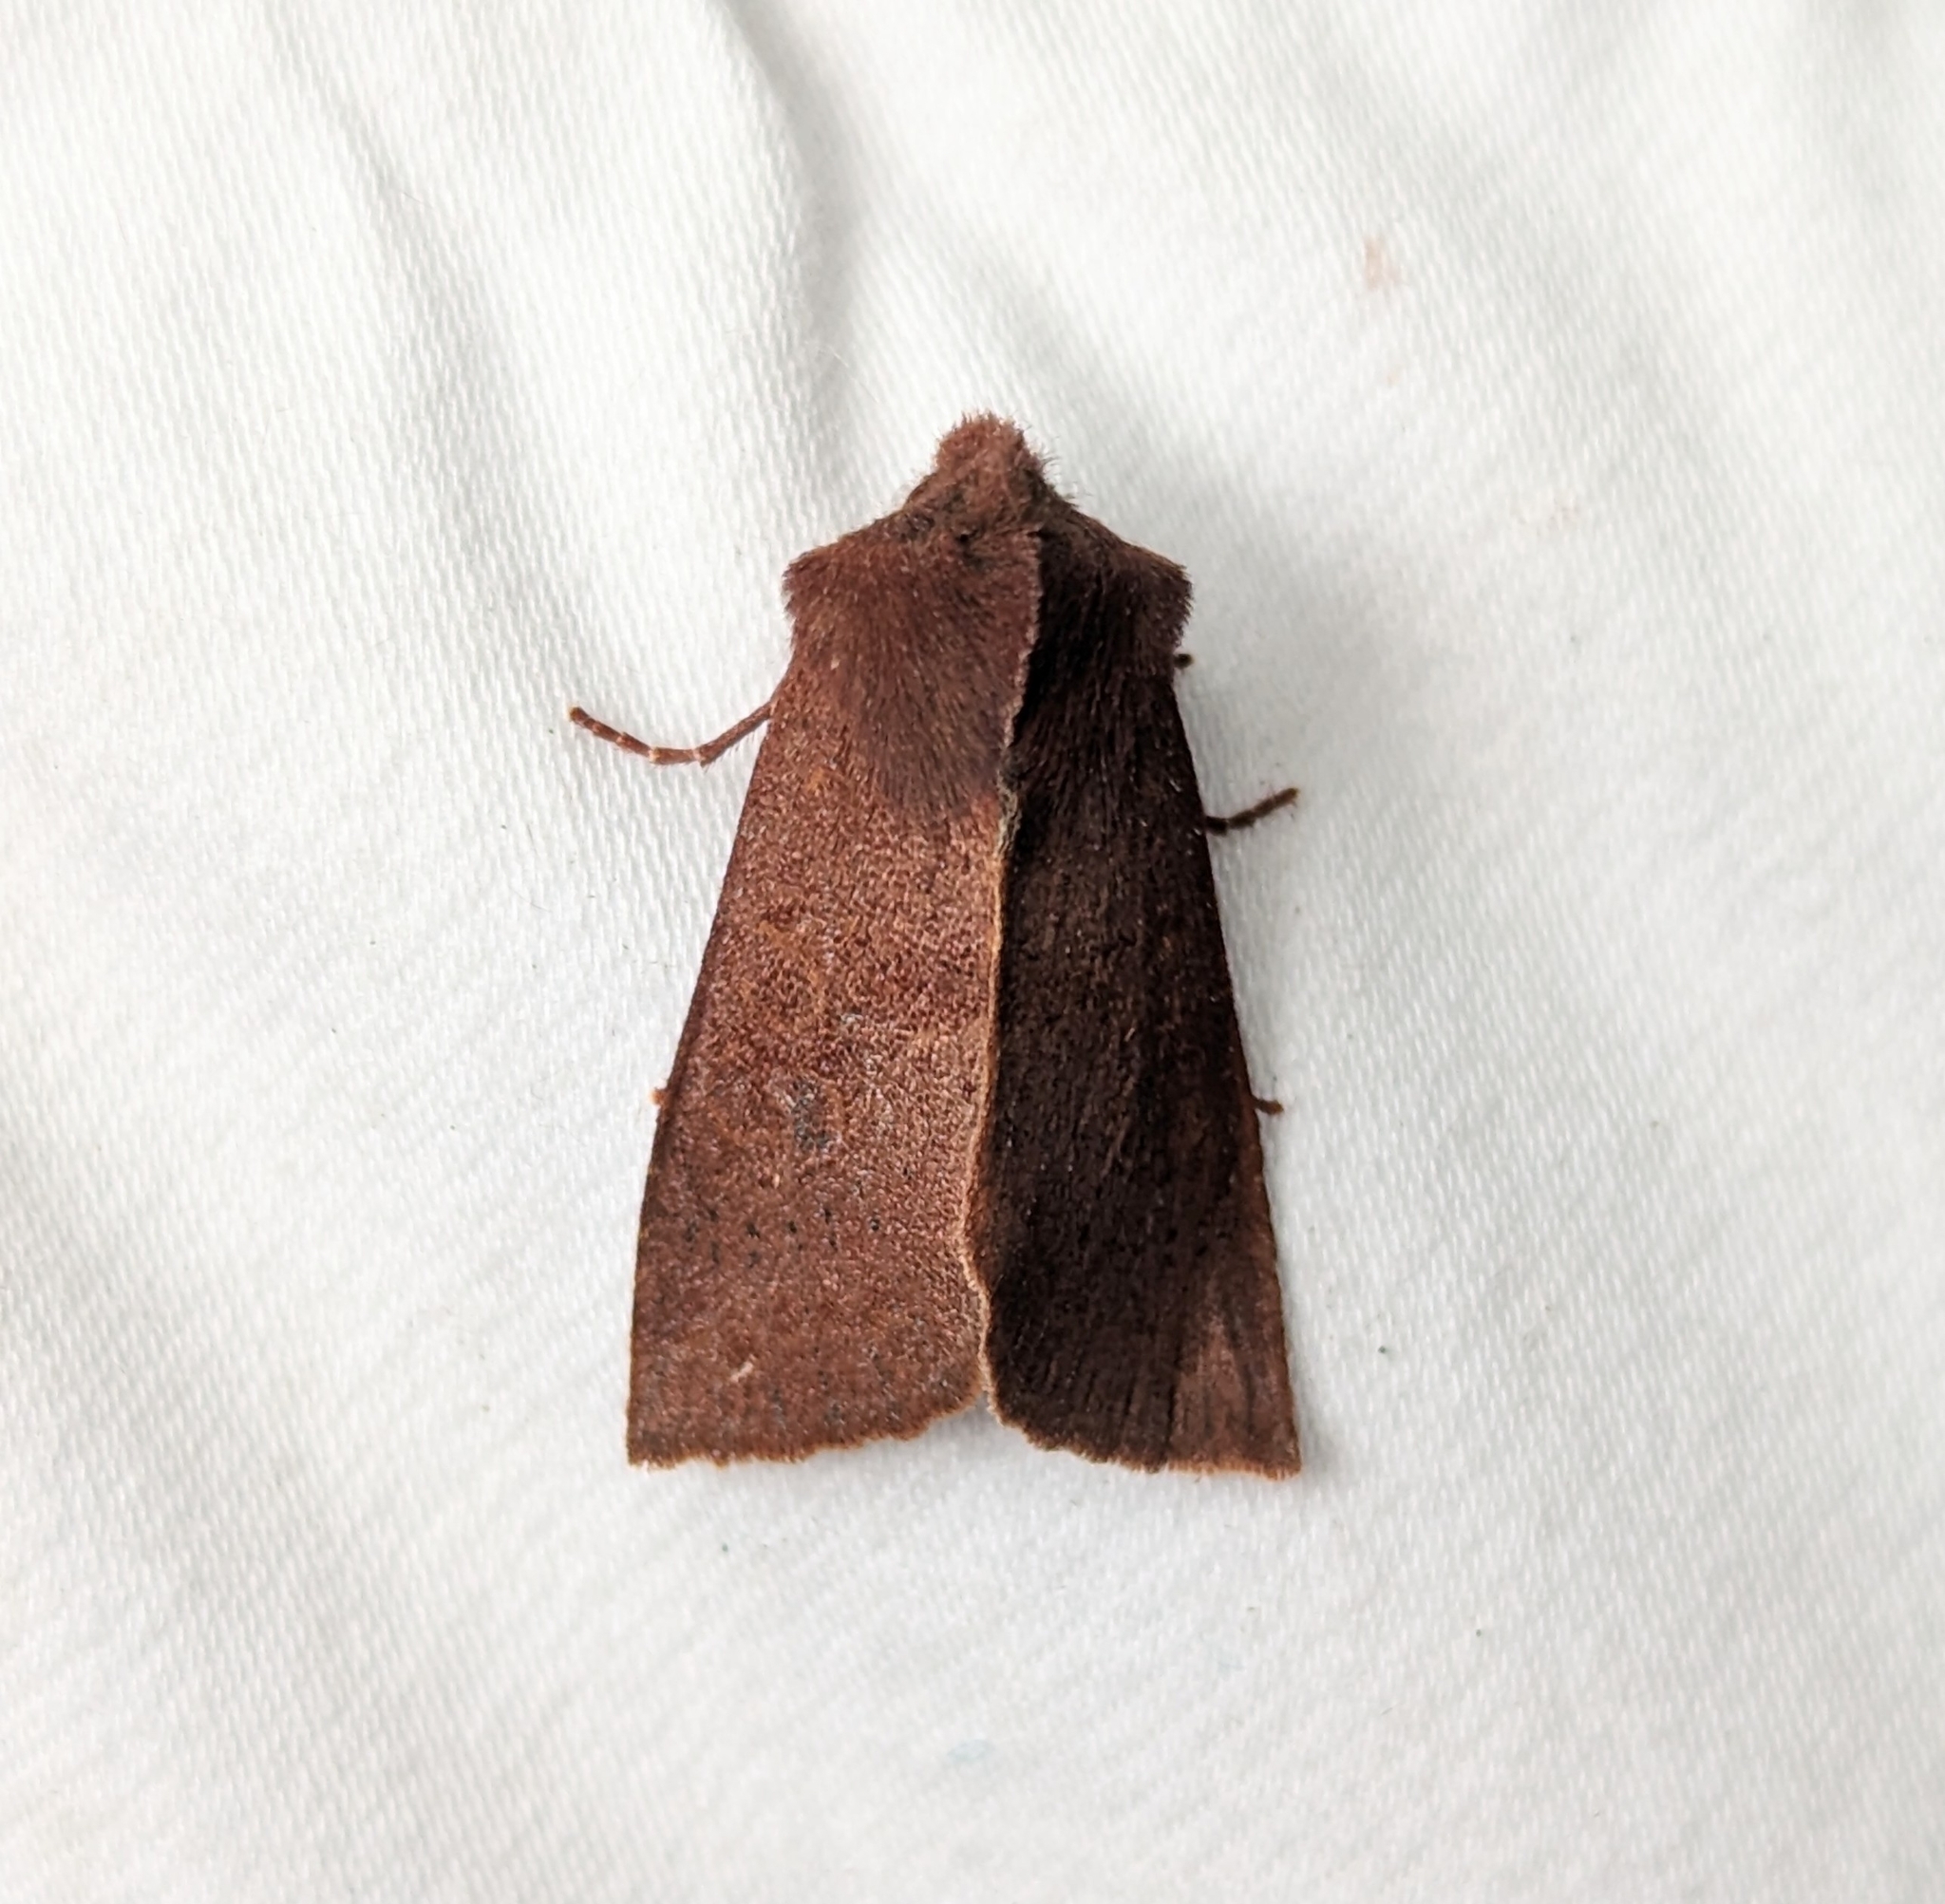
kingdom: Animalia
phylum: Arthropoda
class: Insecta
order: Lepidoptera
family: Noctuidae
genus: Orthosia
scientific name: Orthosia transparens
